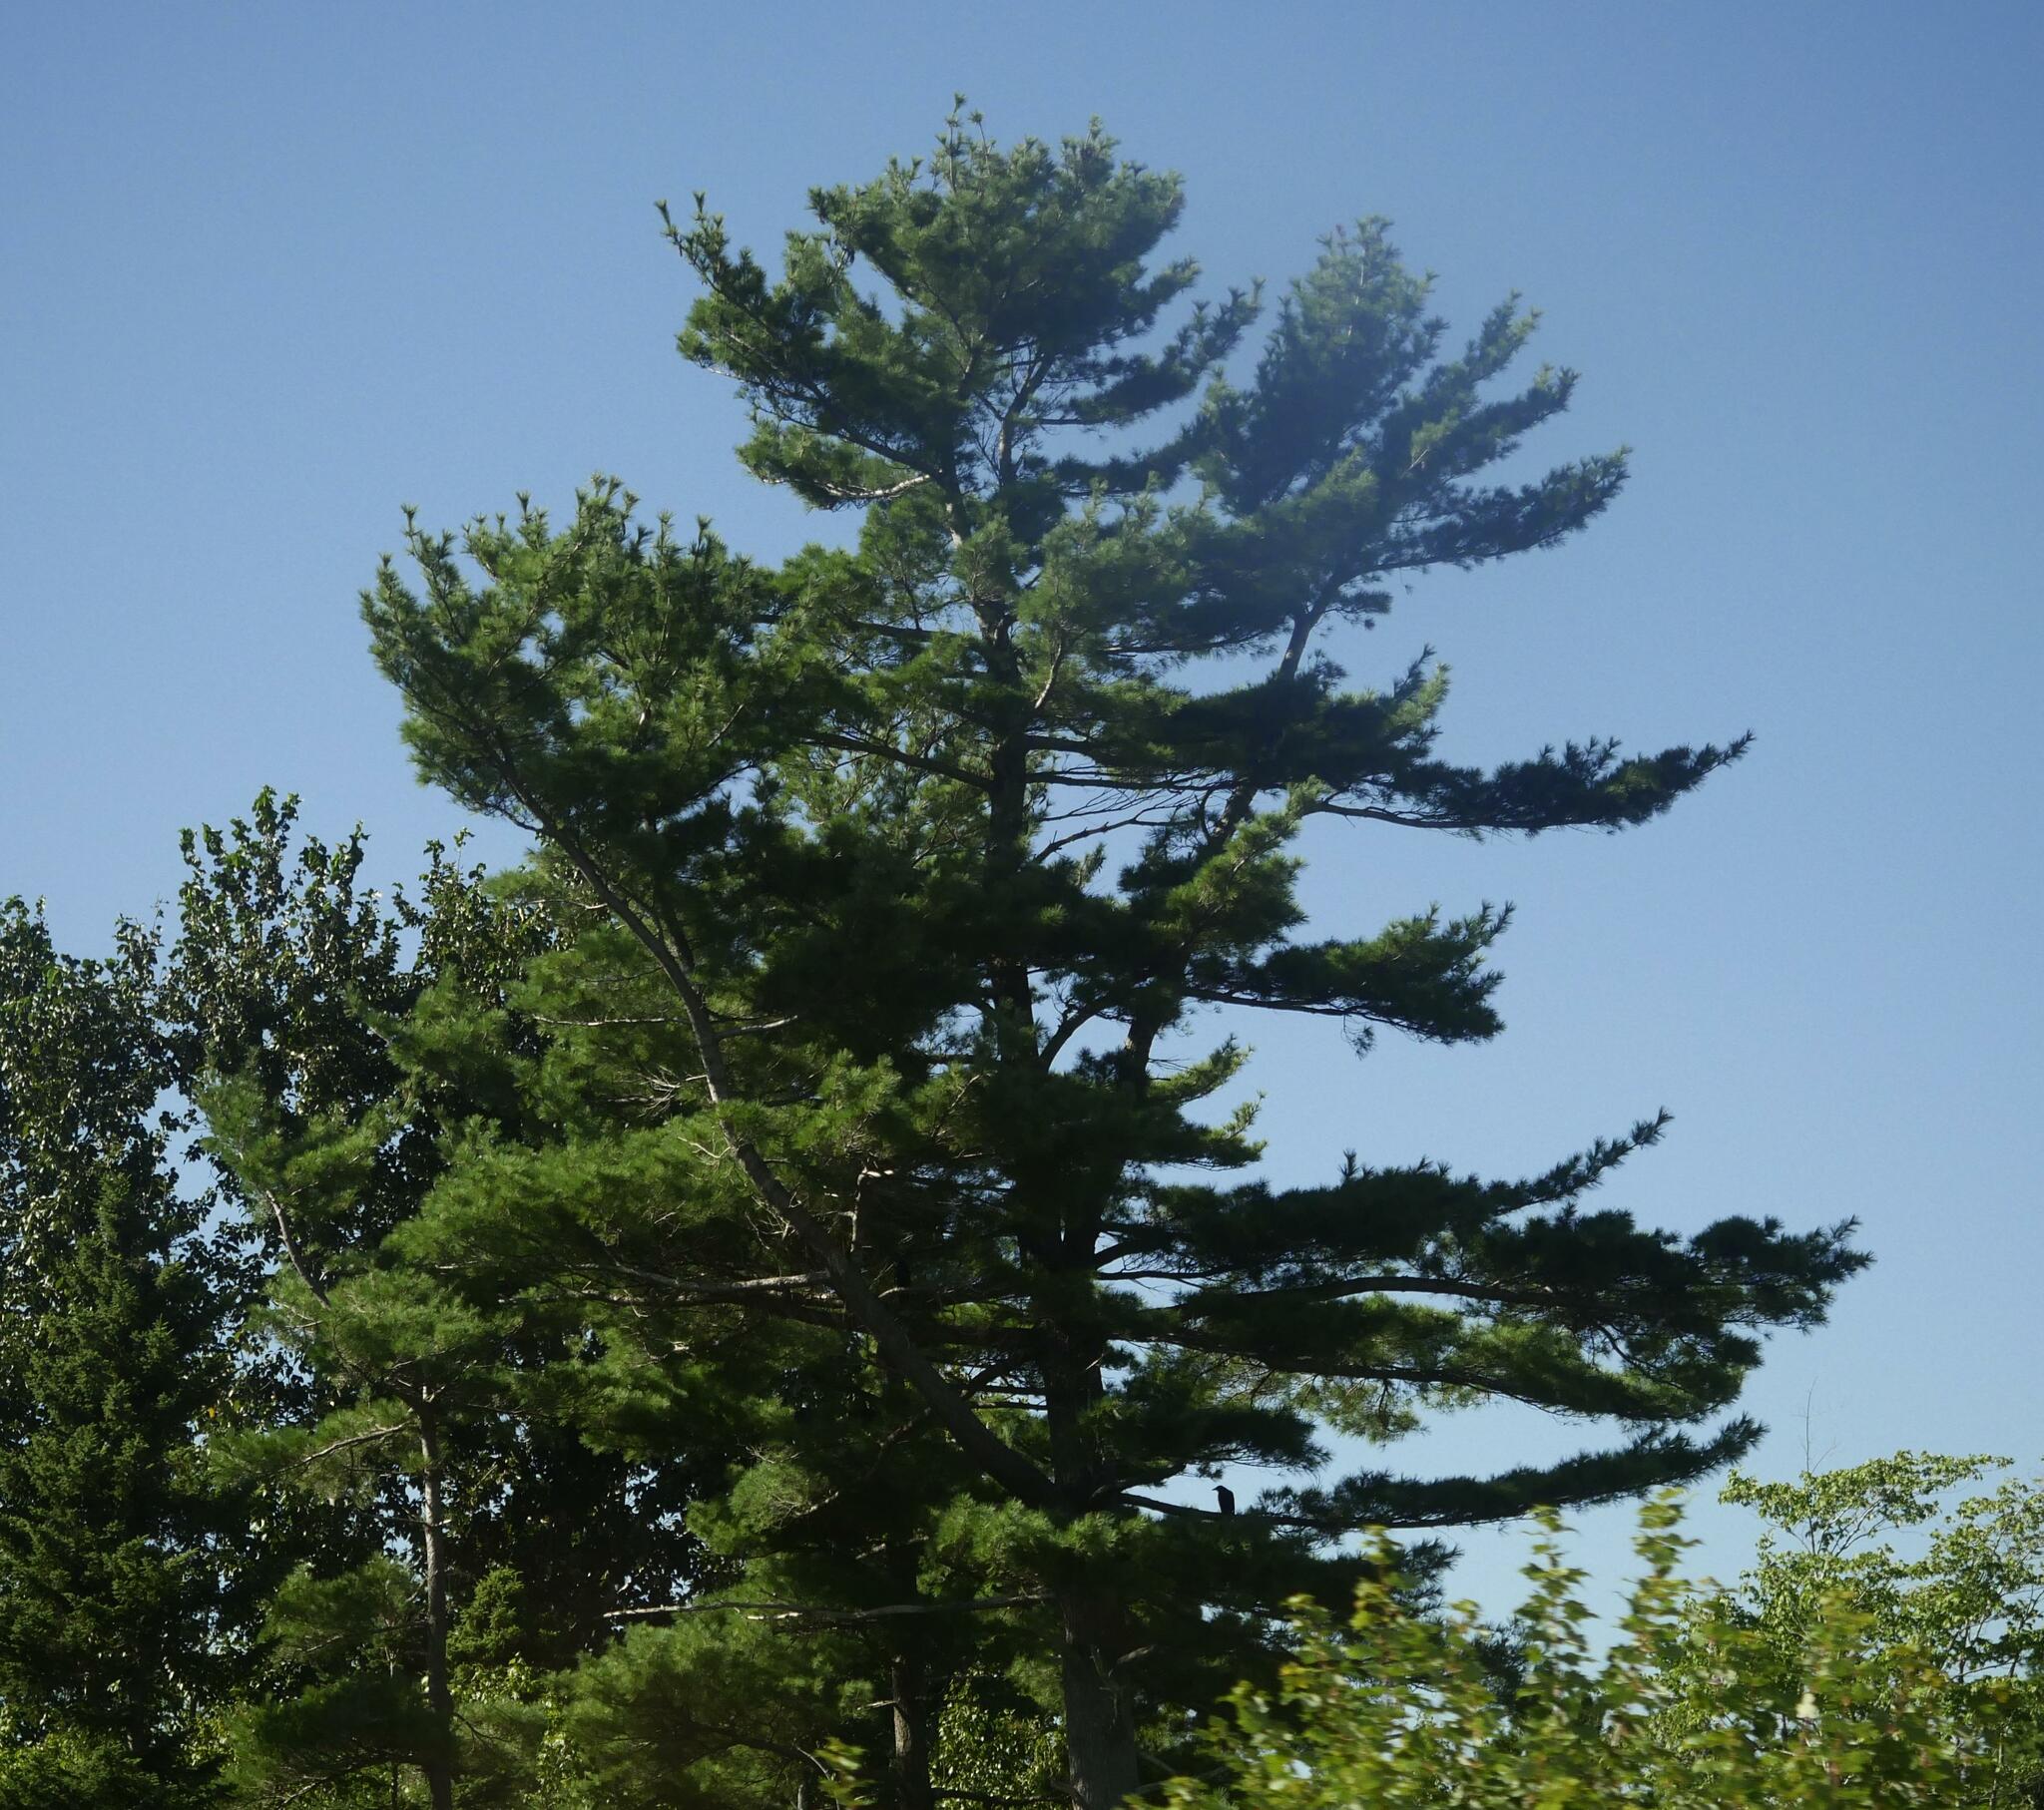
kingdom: Plantae
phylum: Tracheophyta
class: Pinopsida
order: Pinales
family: Pinaceae
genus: Pinus
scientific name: Pinus strobus
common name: Weymouth pine
